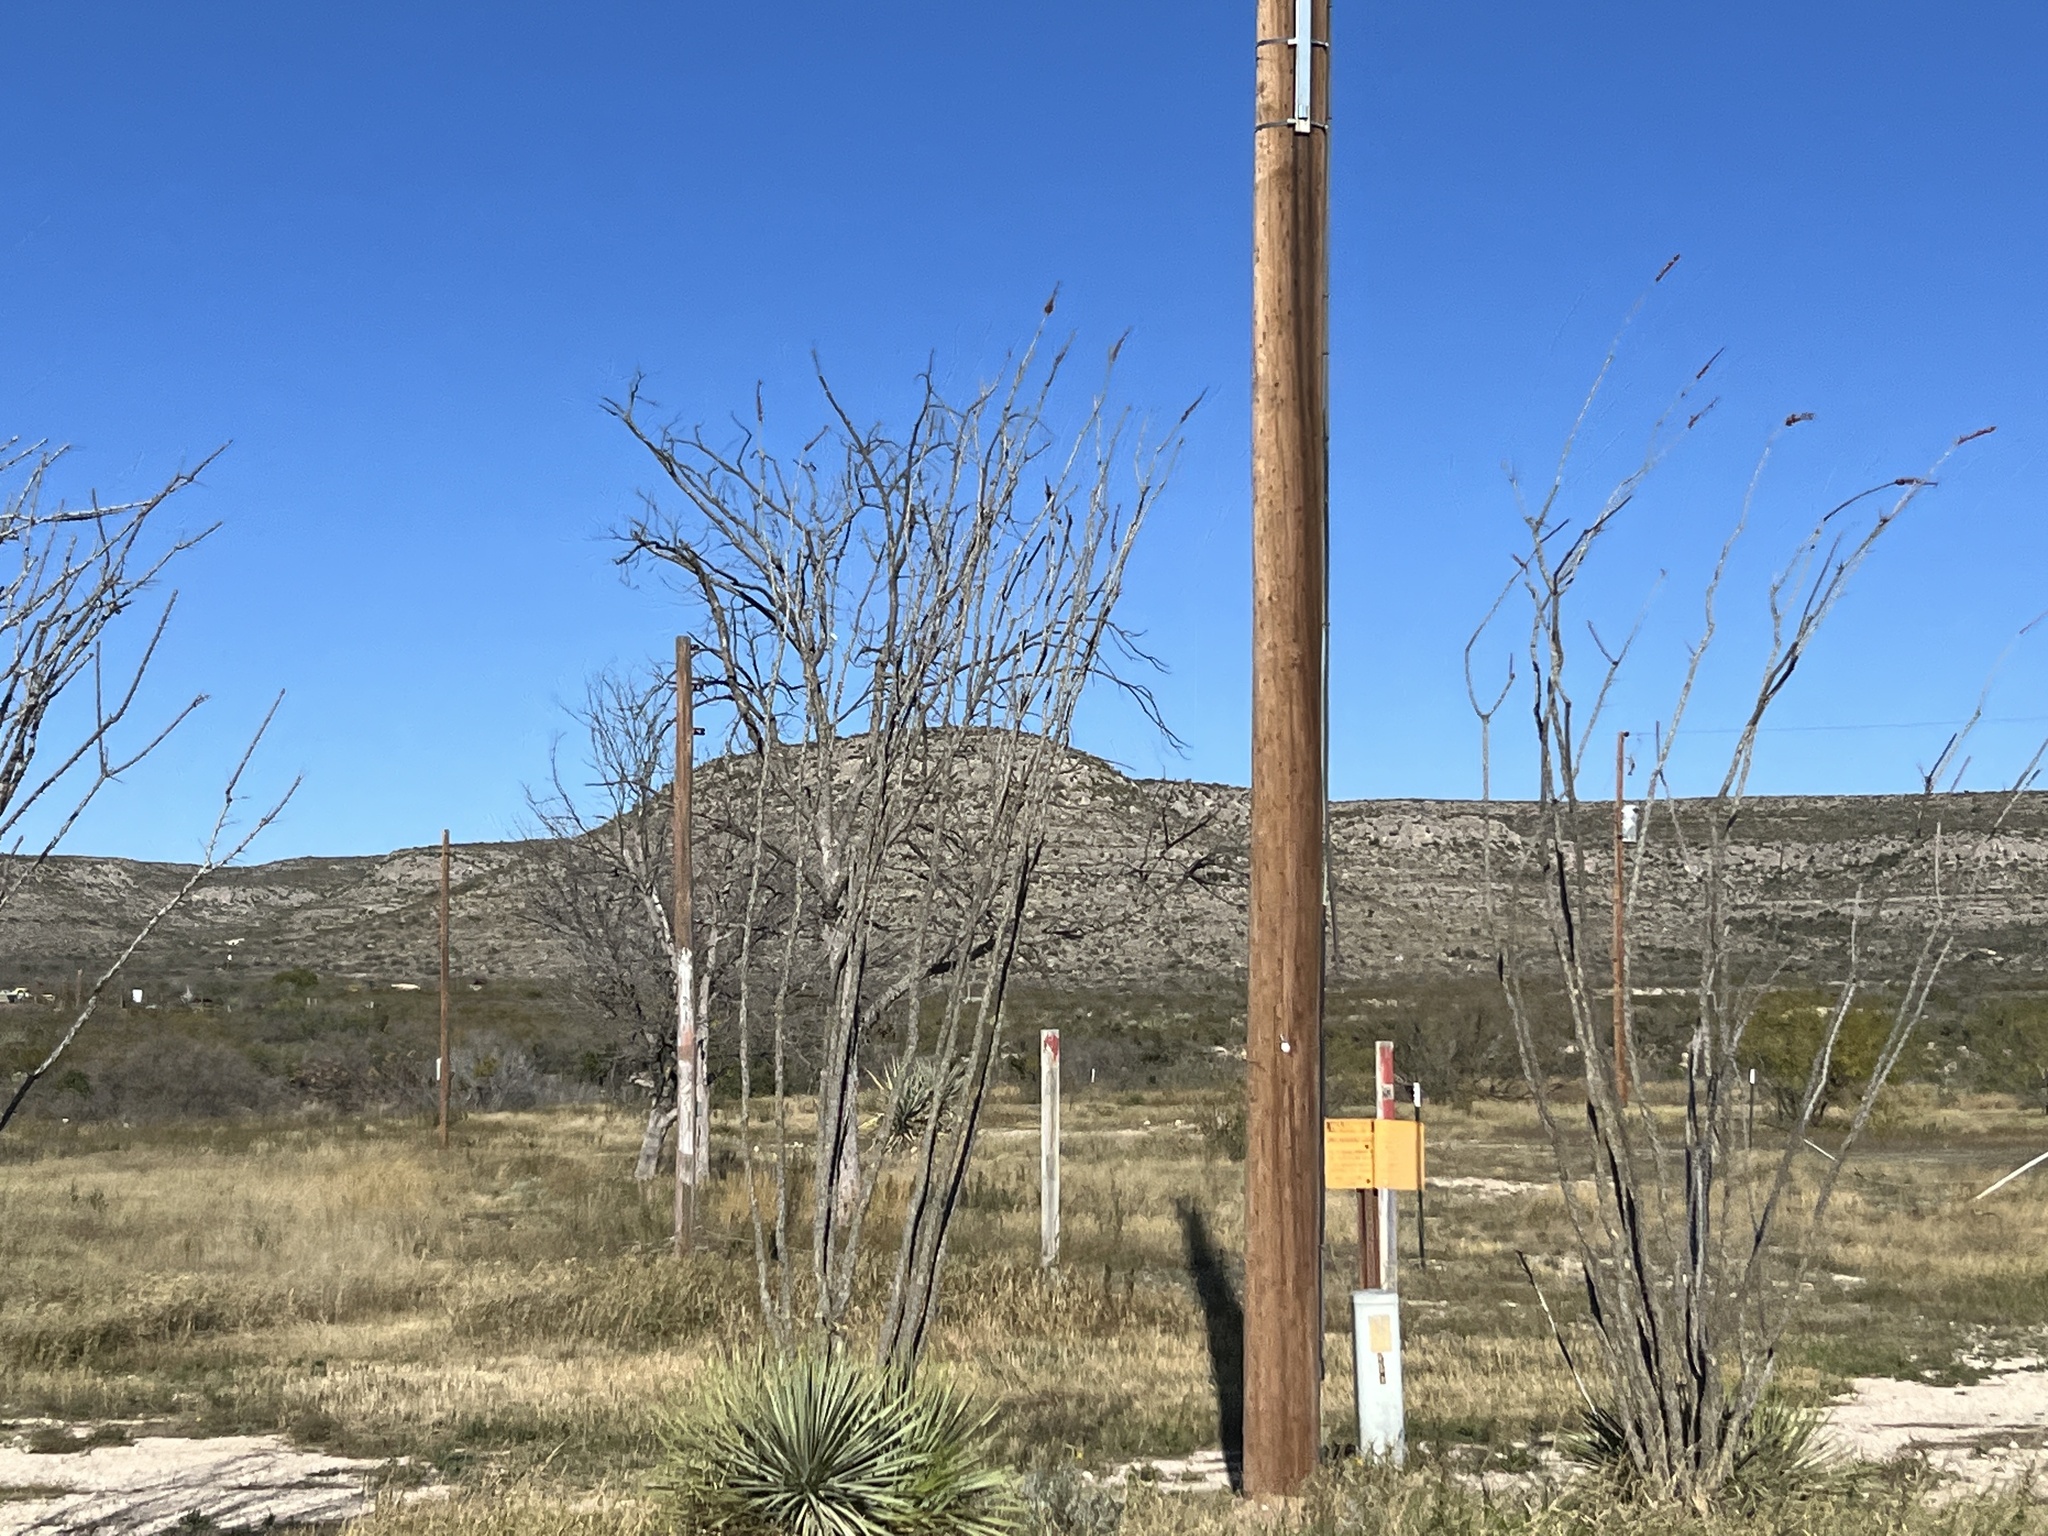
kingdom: Plantae
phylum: Tracheophyta
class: Magnoliopsida
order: Ericales
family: Fouquieriaceae
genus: Fouquieria
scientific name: Fouquieria splendens
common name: Vine-cactus
